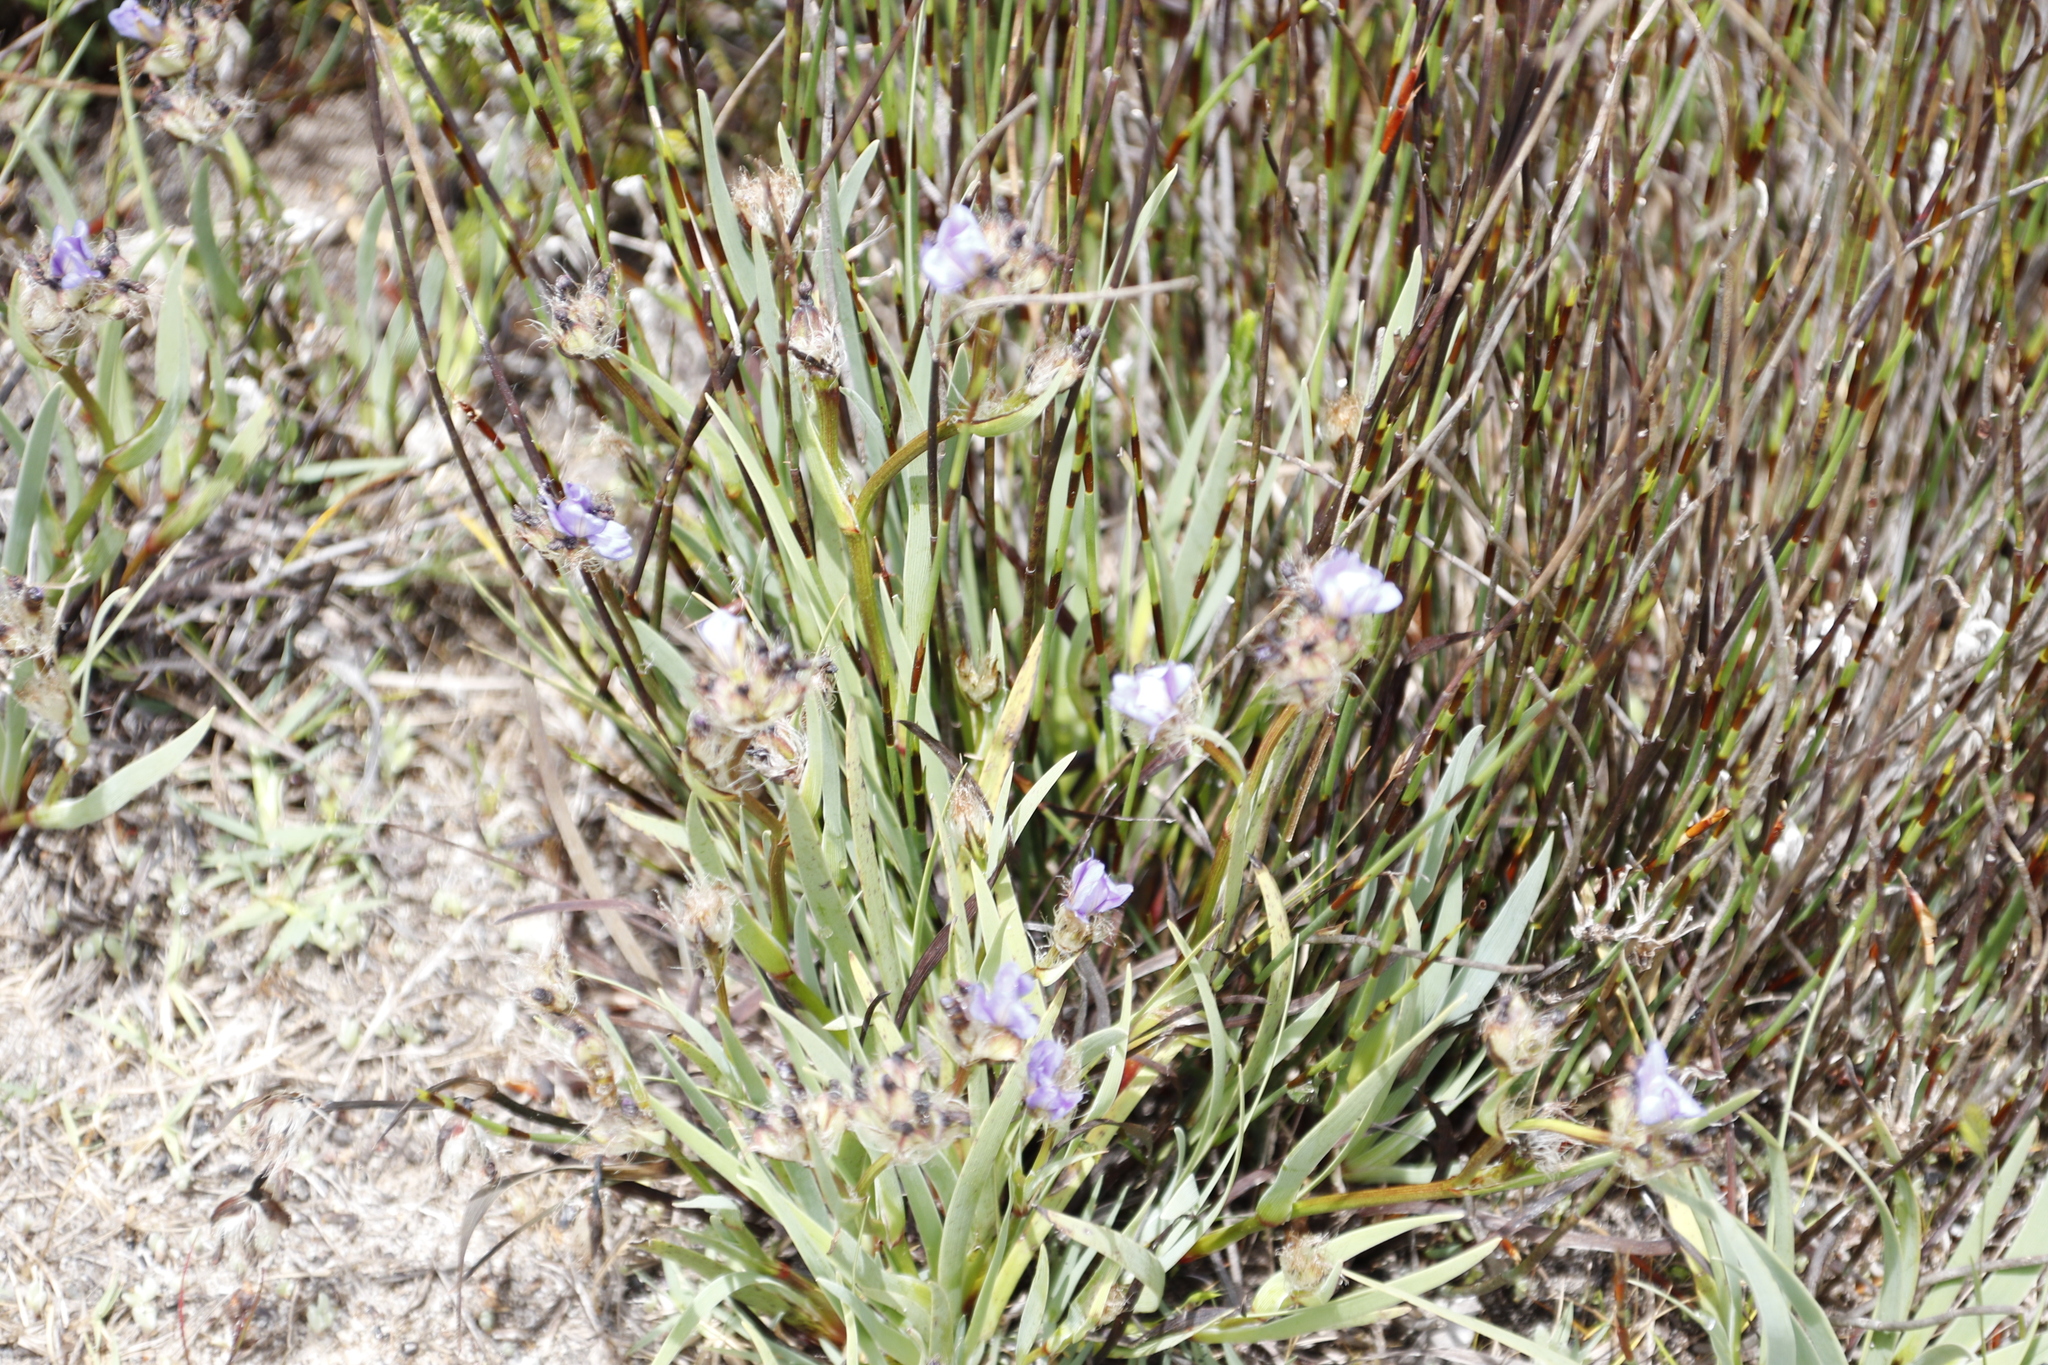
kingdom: Plantae
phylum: Tracheophyta
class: Liliopsida
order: Asparagales
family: Iridaceae
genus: Aristea
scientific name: Aristea africana
